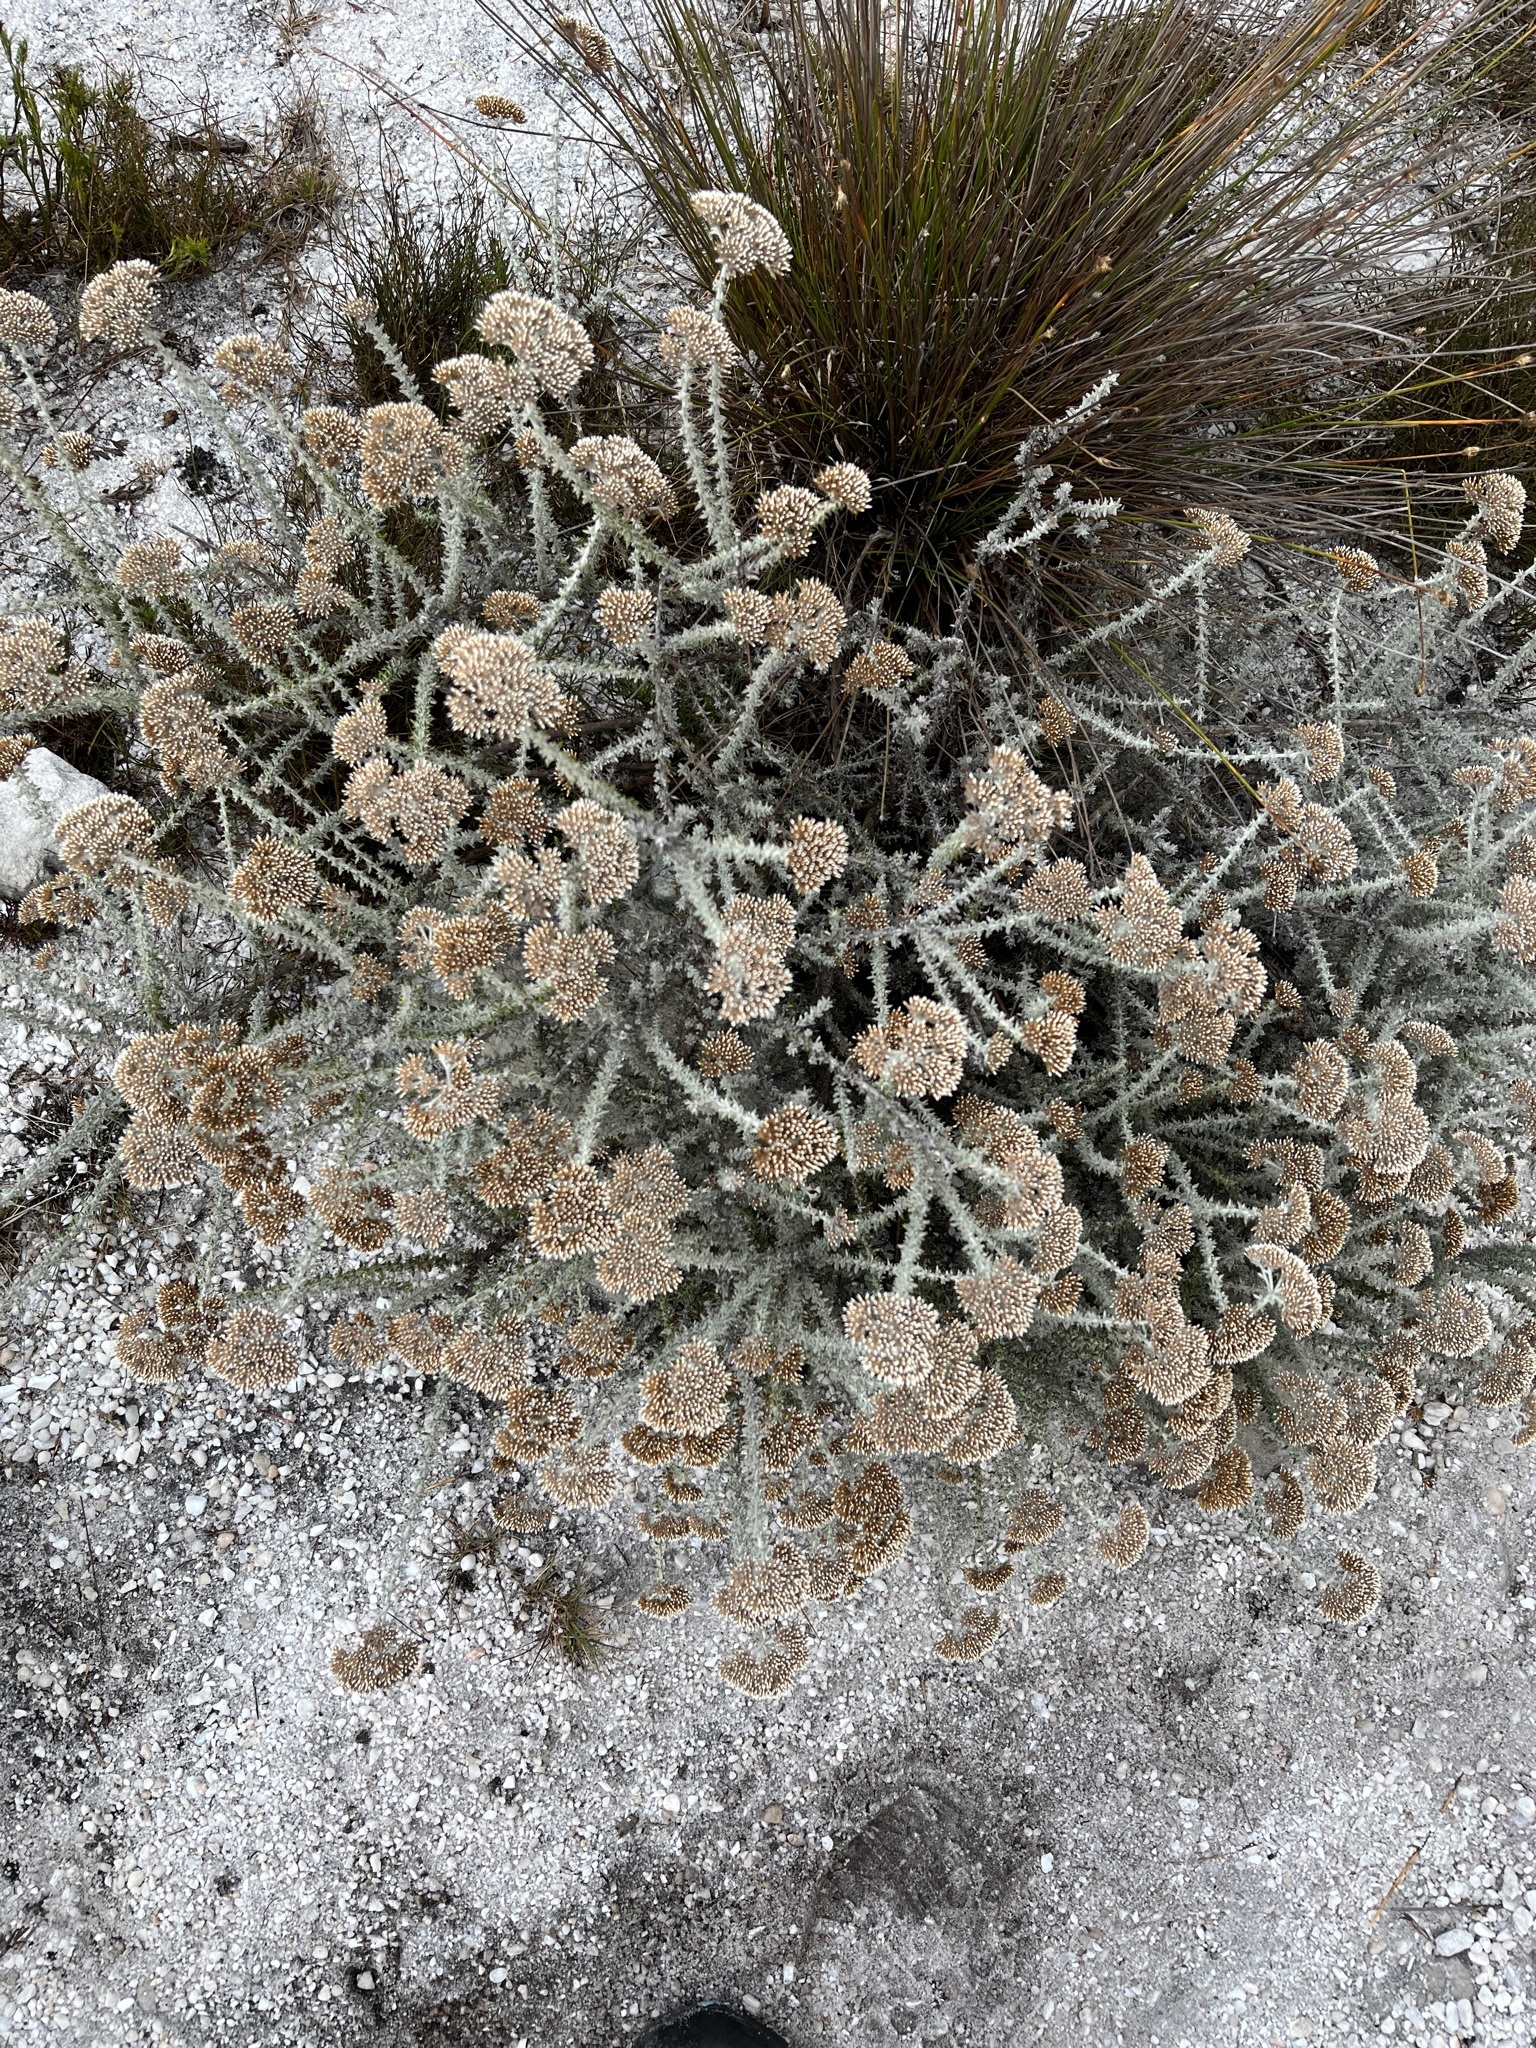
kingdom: Plantae
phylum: Tracheophyta
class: Magnoliopsida
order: Asterales
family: Asteraceae
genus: Metalasia
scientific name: Metalasia densa
